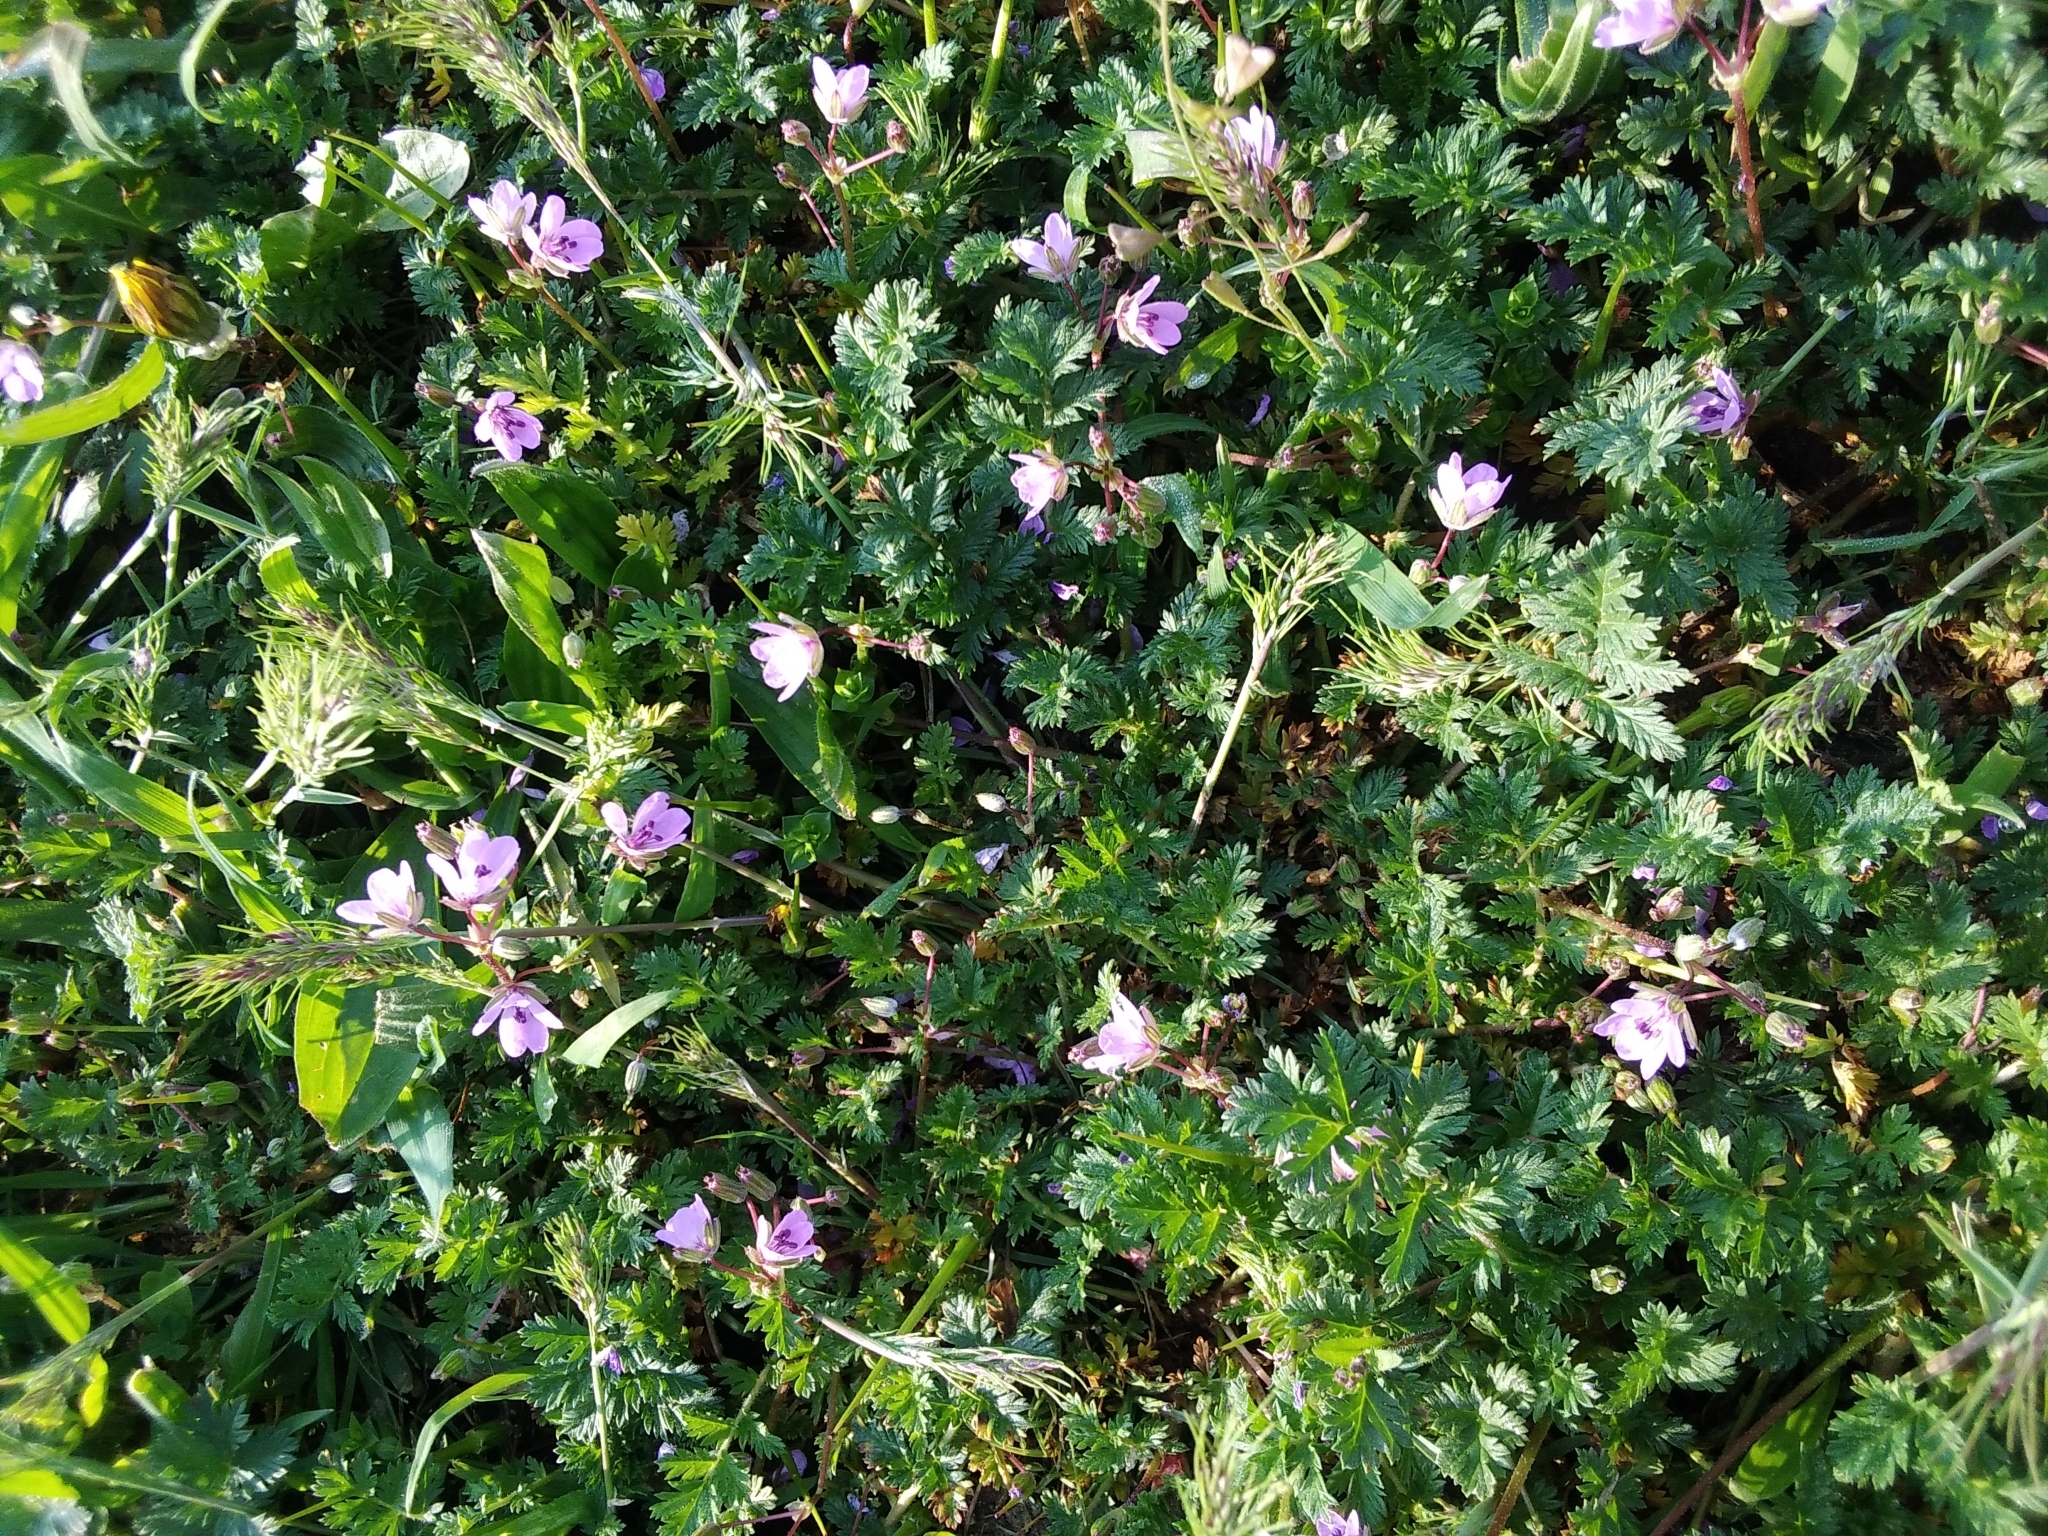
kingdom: Plantae
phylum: Tracheophyta
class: Magnoliopsida
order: Geraniales
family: Geraniaceae
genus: Erodium
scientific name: Erodium cicutarium
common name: Common stork's-bill
